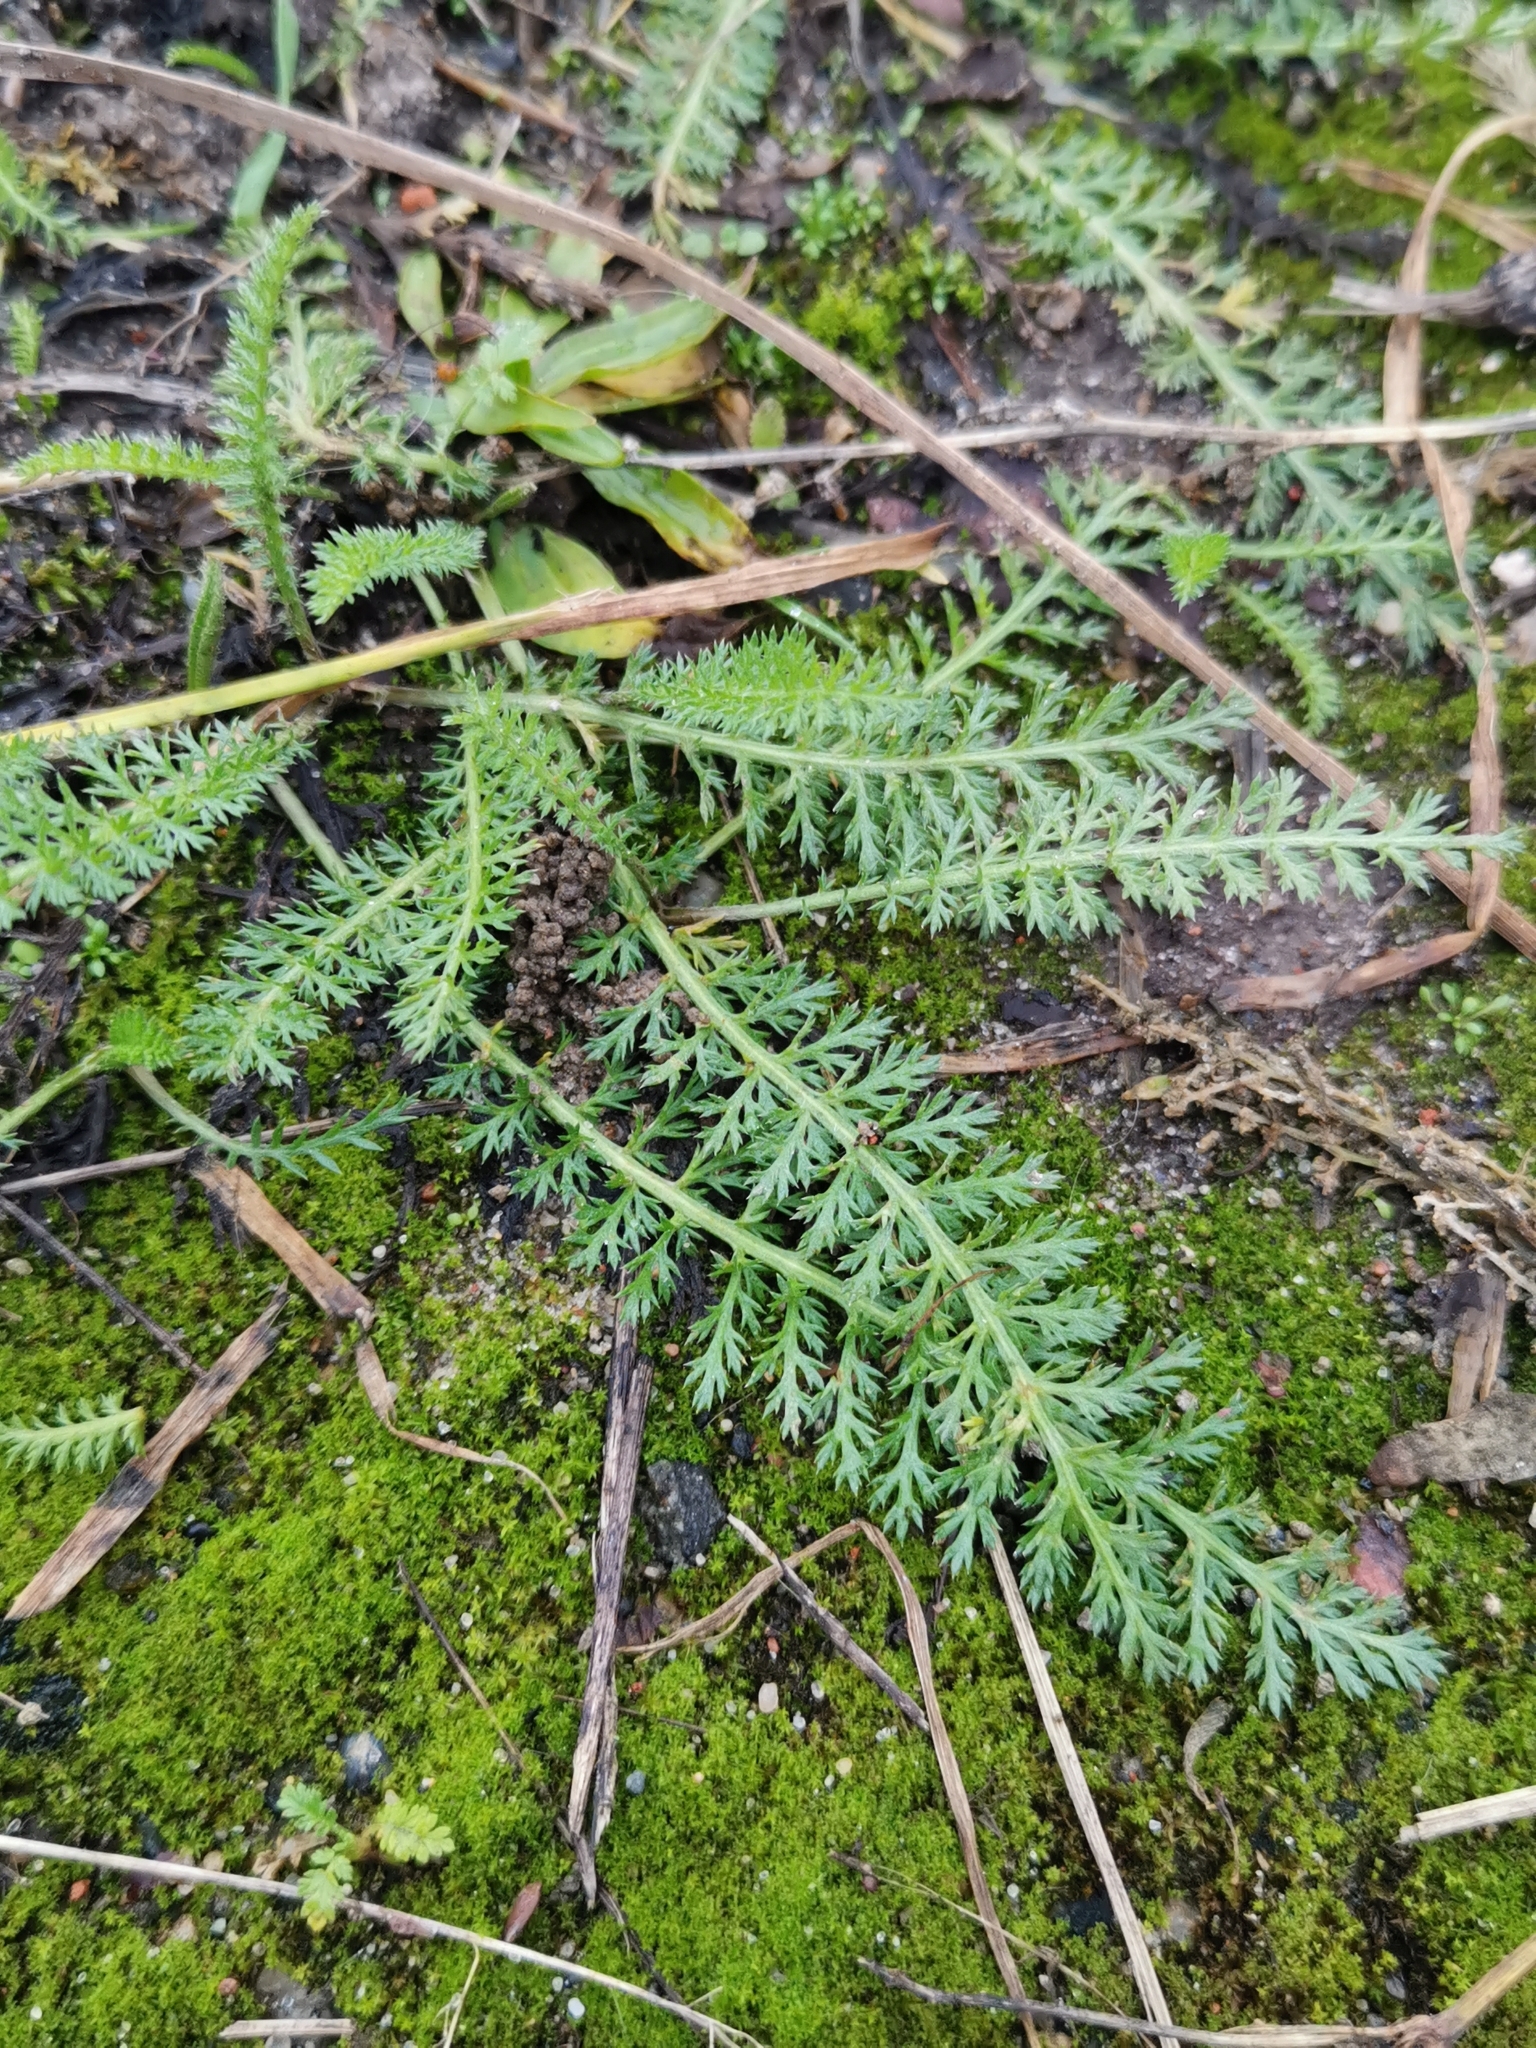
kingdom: Plantae
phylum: Tracheophyta
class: Magnoliopsida
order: Asterales
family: Asteraceae
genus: Achillea
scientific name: Achillea millefolium
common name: Yarrow
